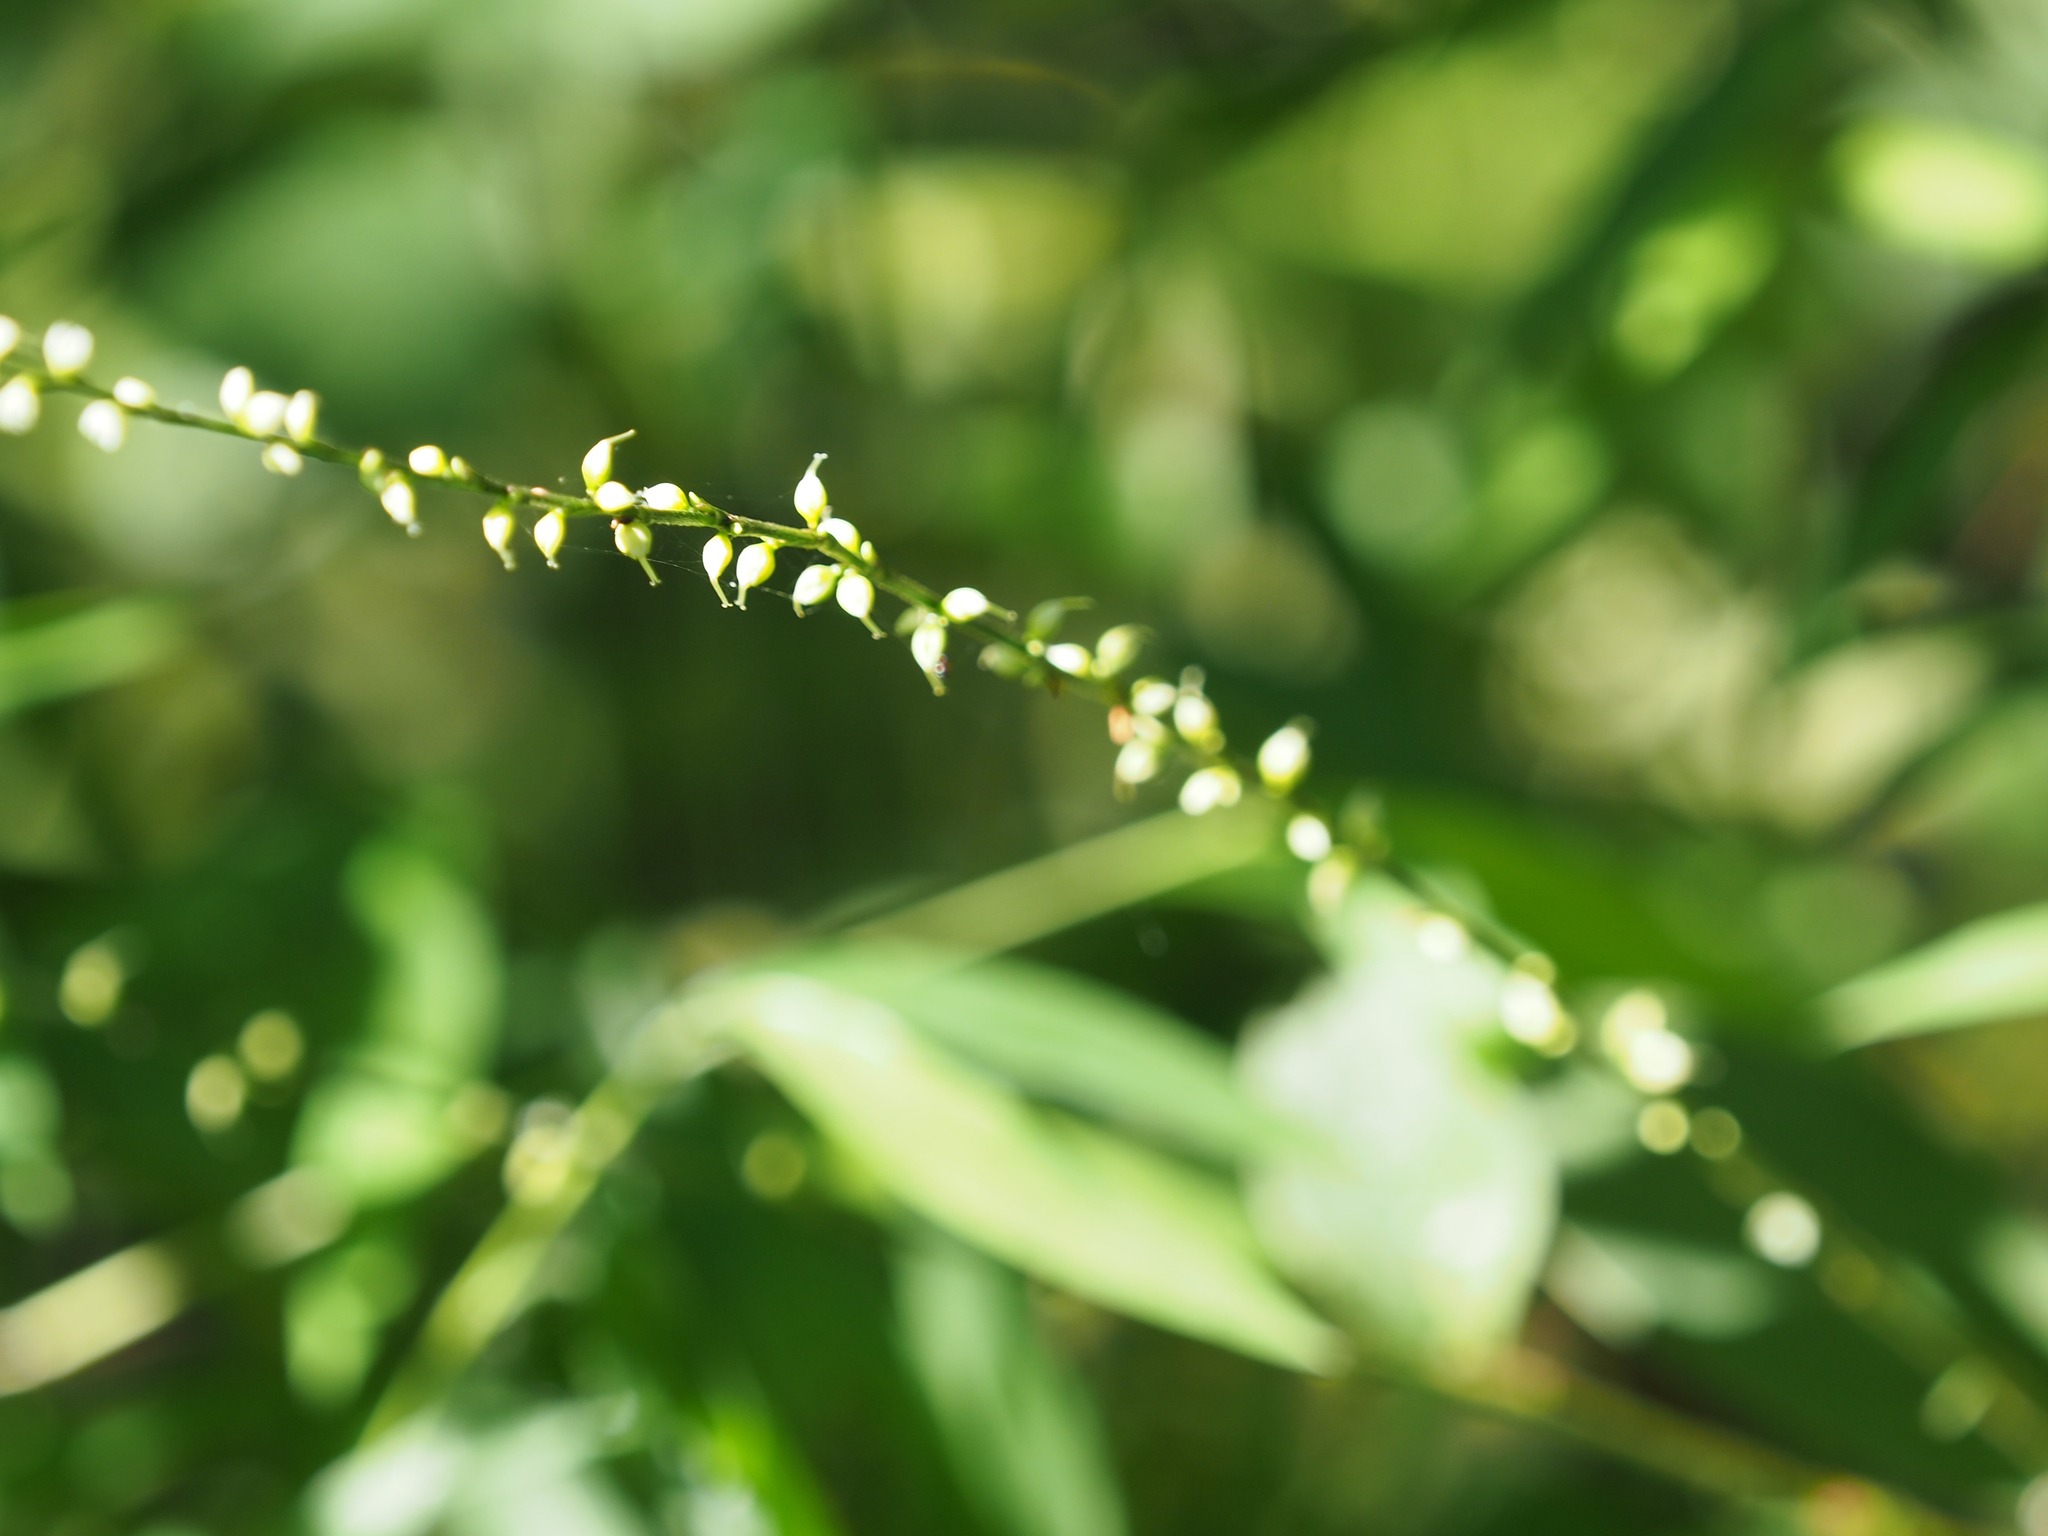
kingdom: Plantae
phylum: Tracheophyta
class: Magnoliopsida
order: Caryophyllales
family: Polygonaceae
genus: Persicaria
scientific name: Persicaria virginiana
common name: Jumpseed
